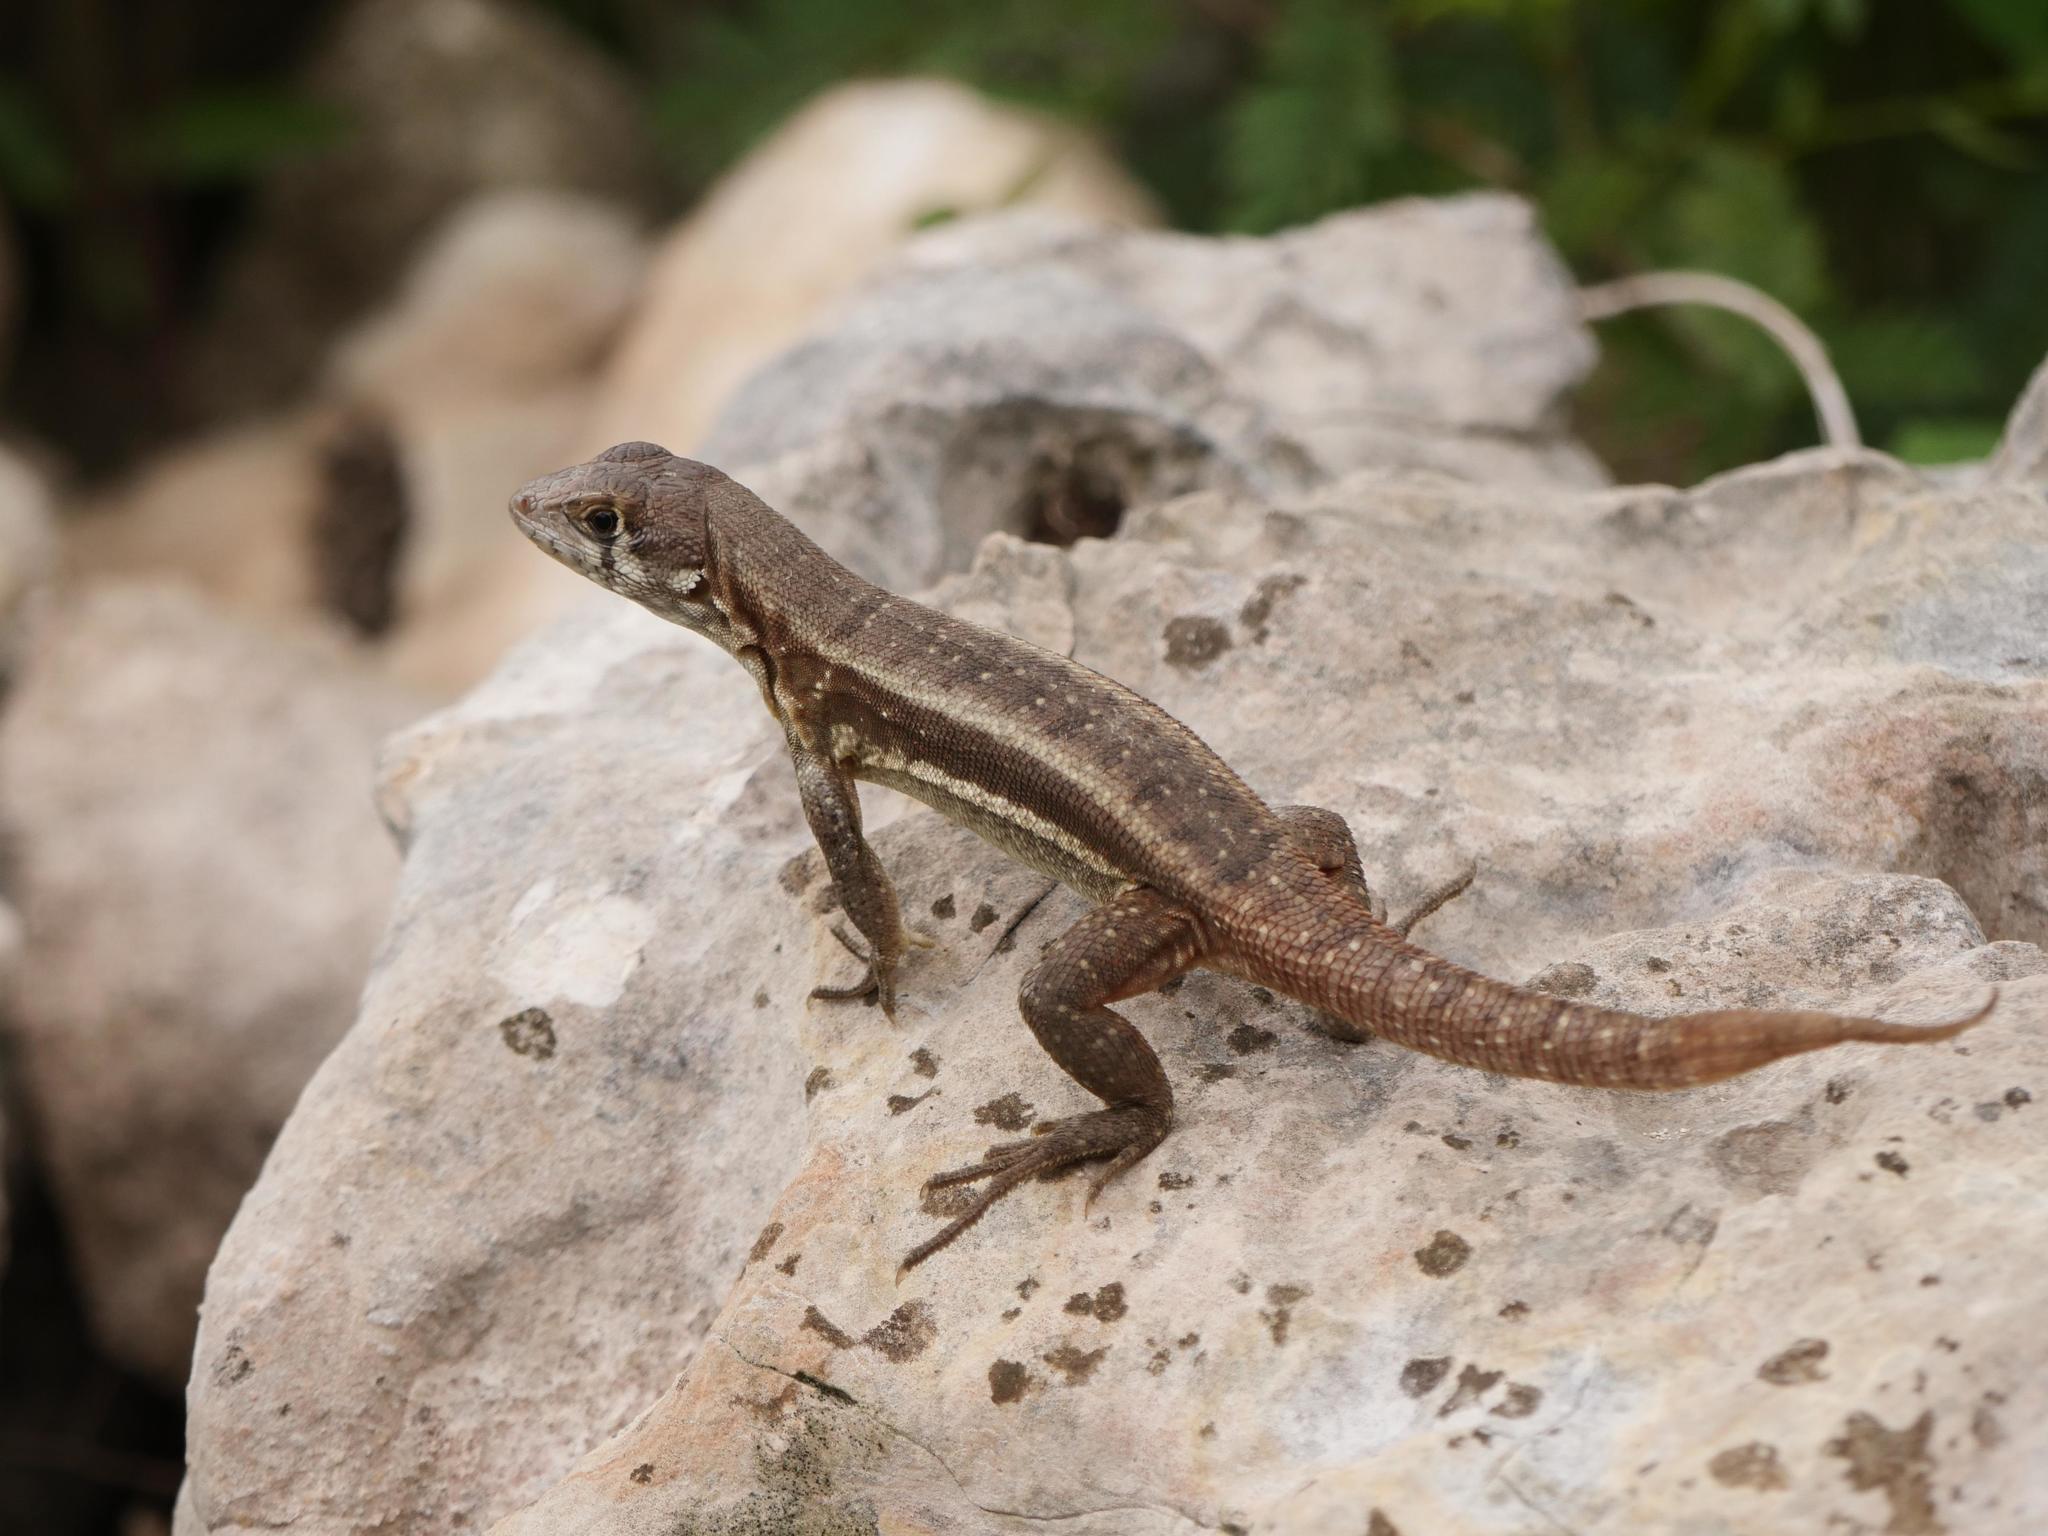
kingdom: Animalia
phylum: Chordata
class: Squamata
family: Leiocephalidae
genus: Leiocephalus
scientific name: Leiocephalus psammodromus
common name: Bastion cay curlytail lizard
